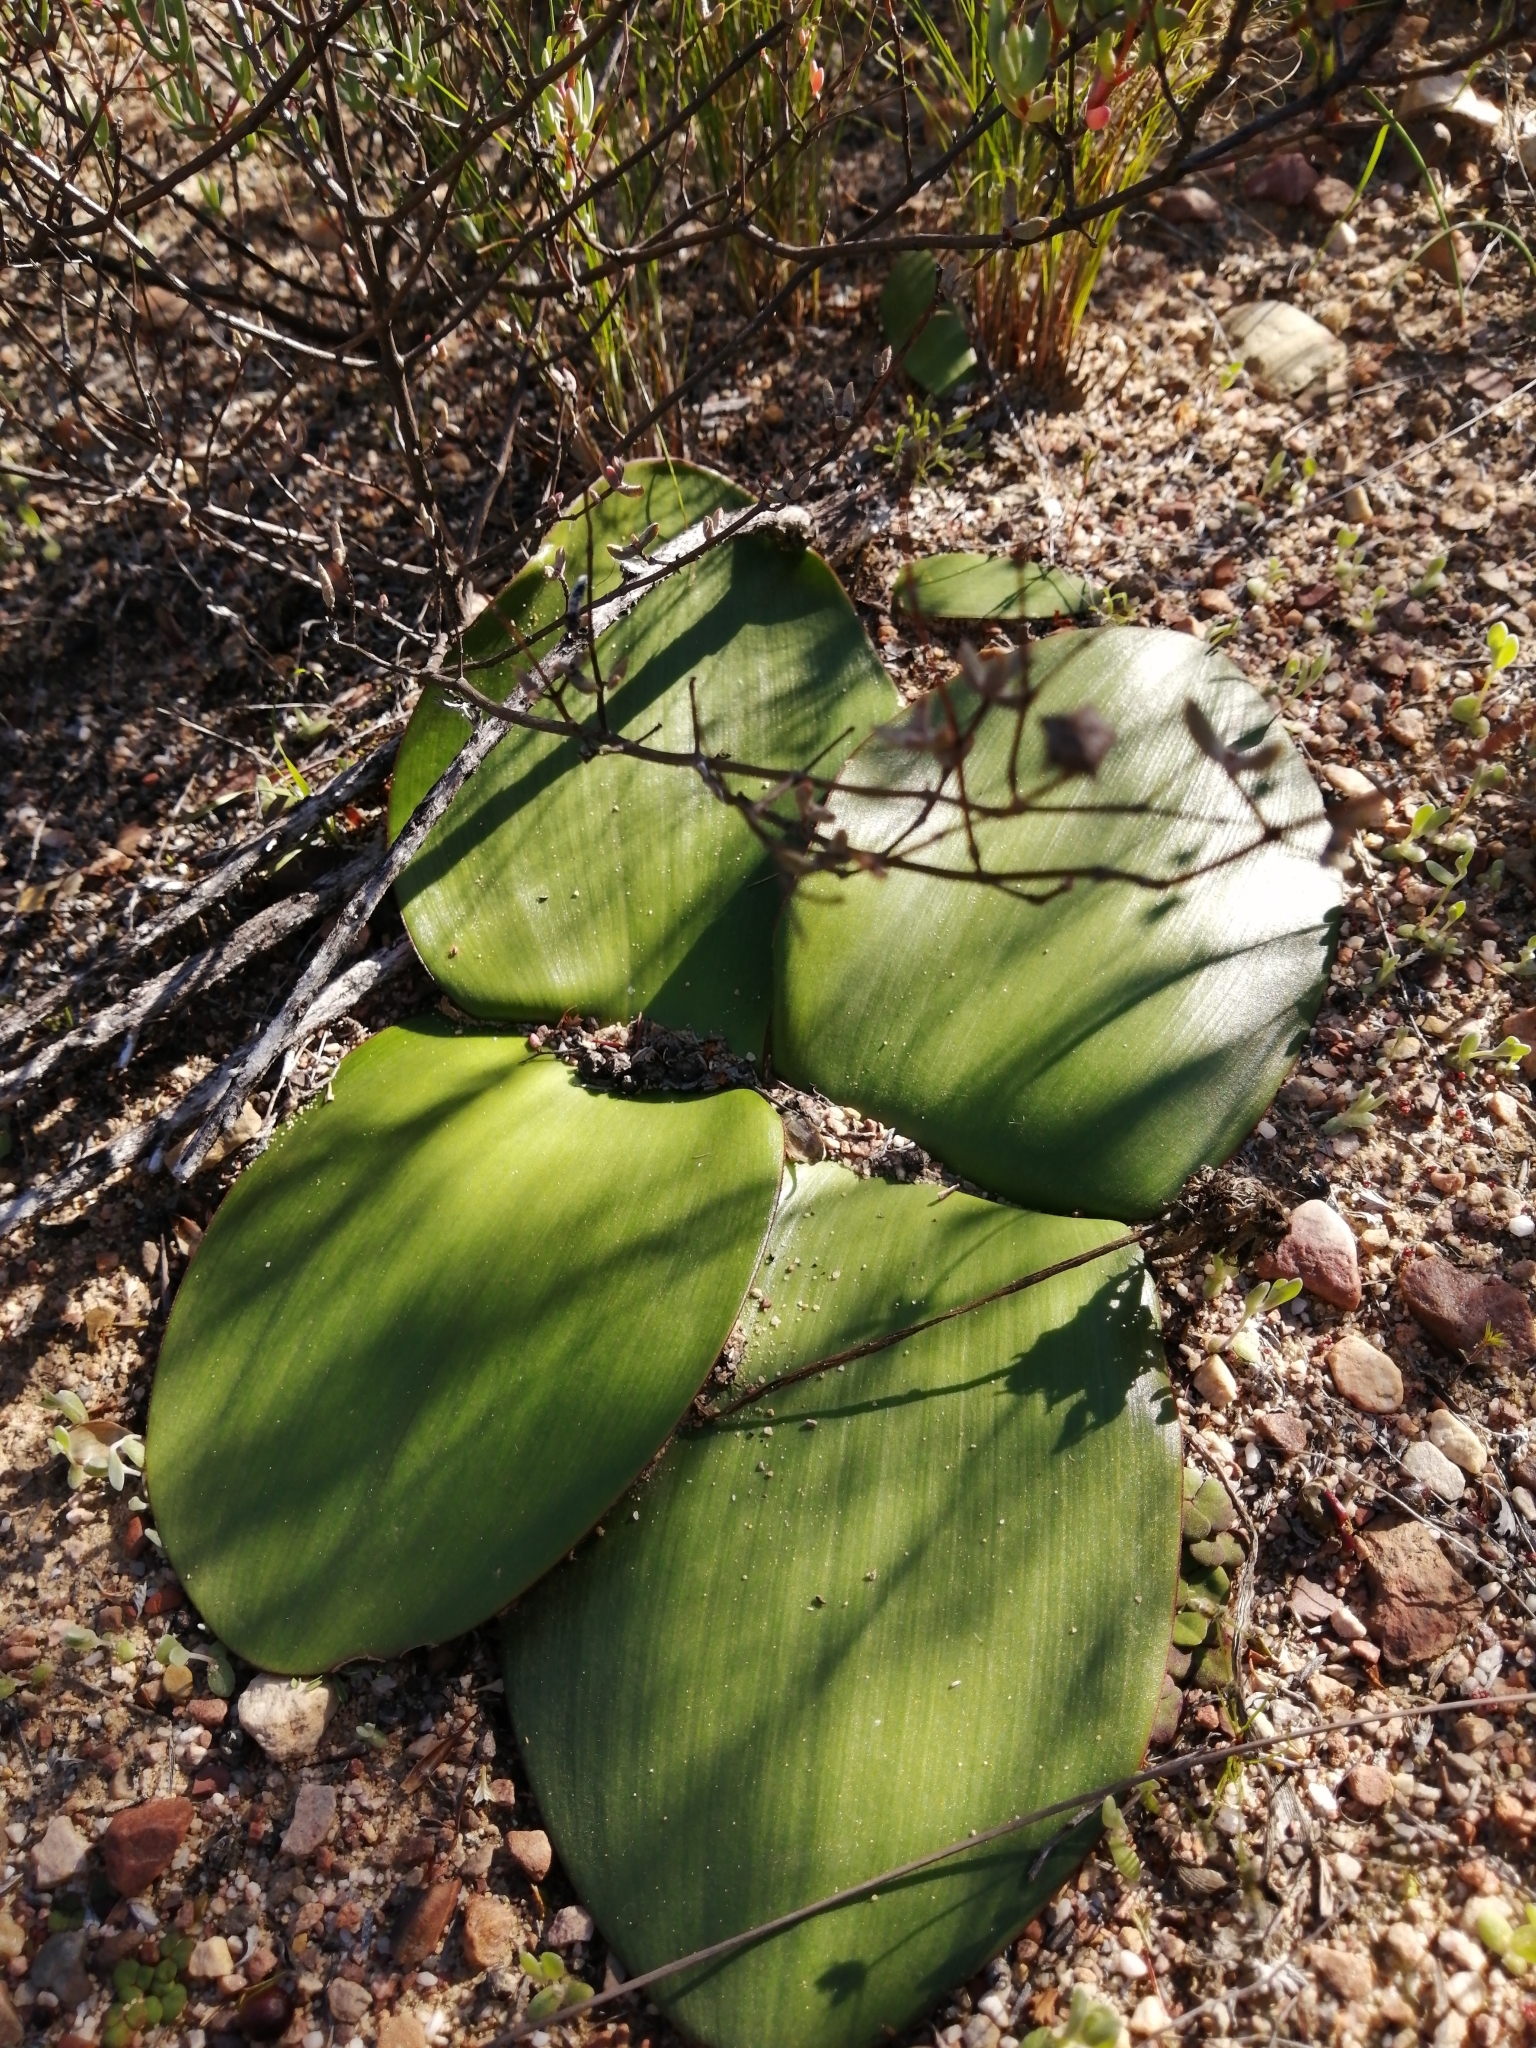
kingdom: Plantae
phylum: Tracheophyta
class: Liliopsida
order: Asparagales
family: Amaryllidaceae
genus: Haemanthus
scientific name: Haemanthus sanguineus
